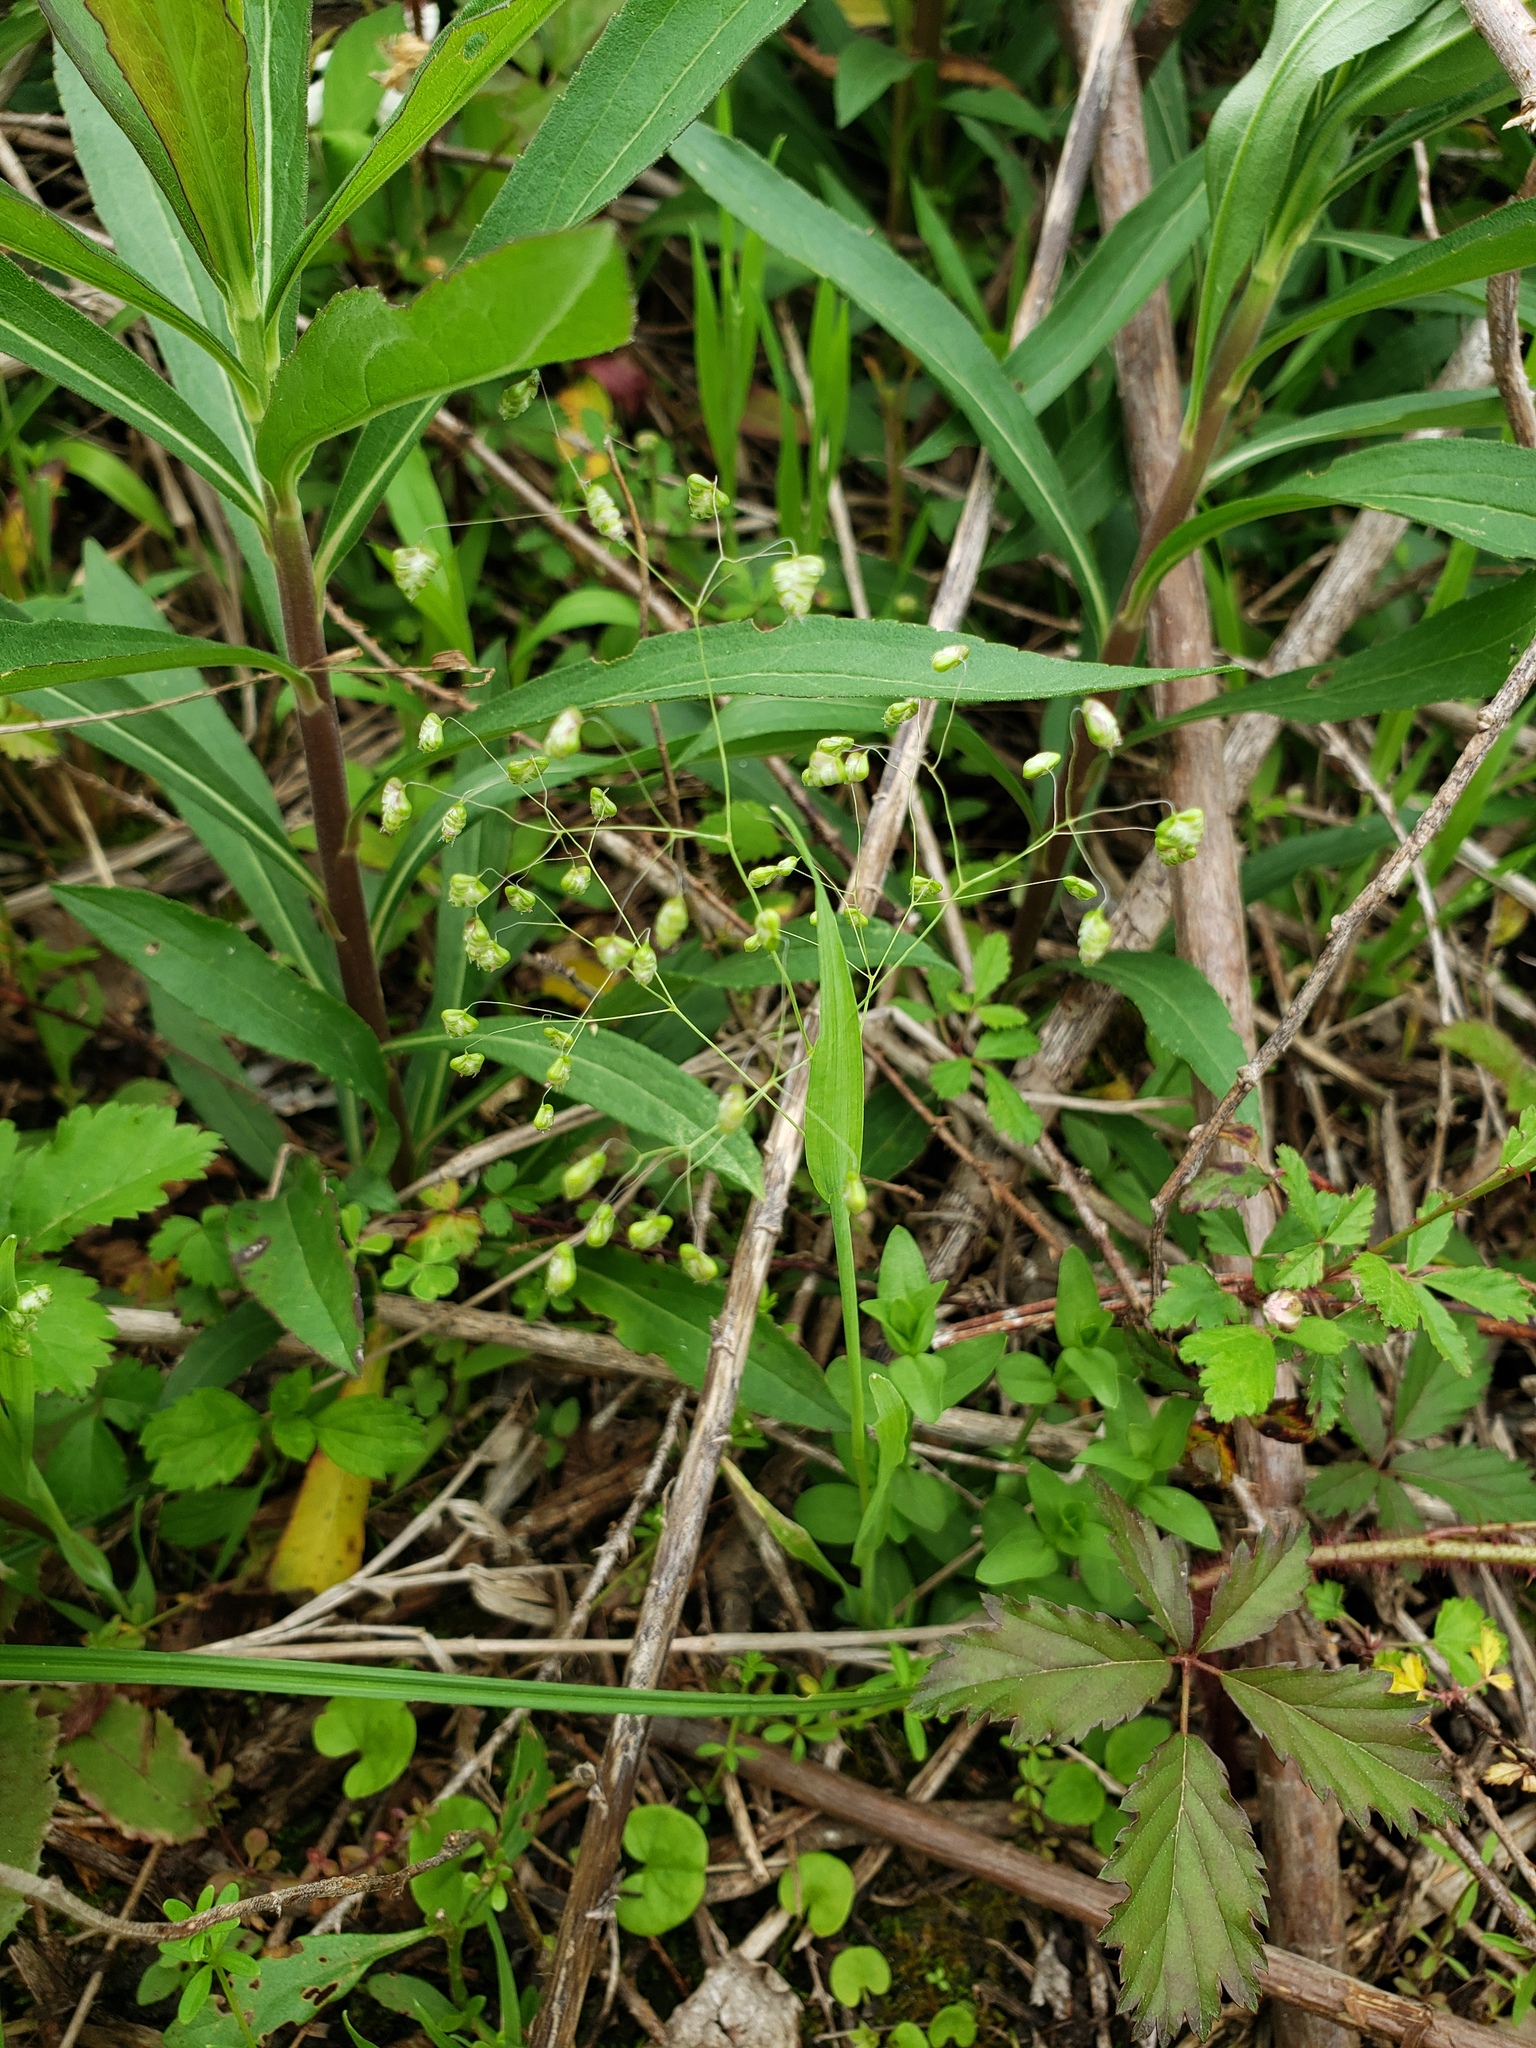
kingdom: Plantae
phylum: Tracheophyta
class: Liliopsida
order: Poales
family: Poaceae
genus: Briza
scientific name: Briza minor
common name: Lesser quaking-grass
